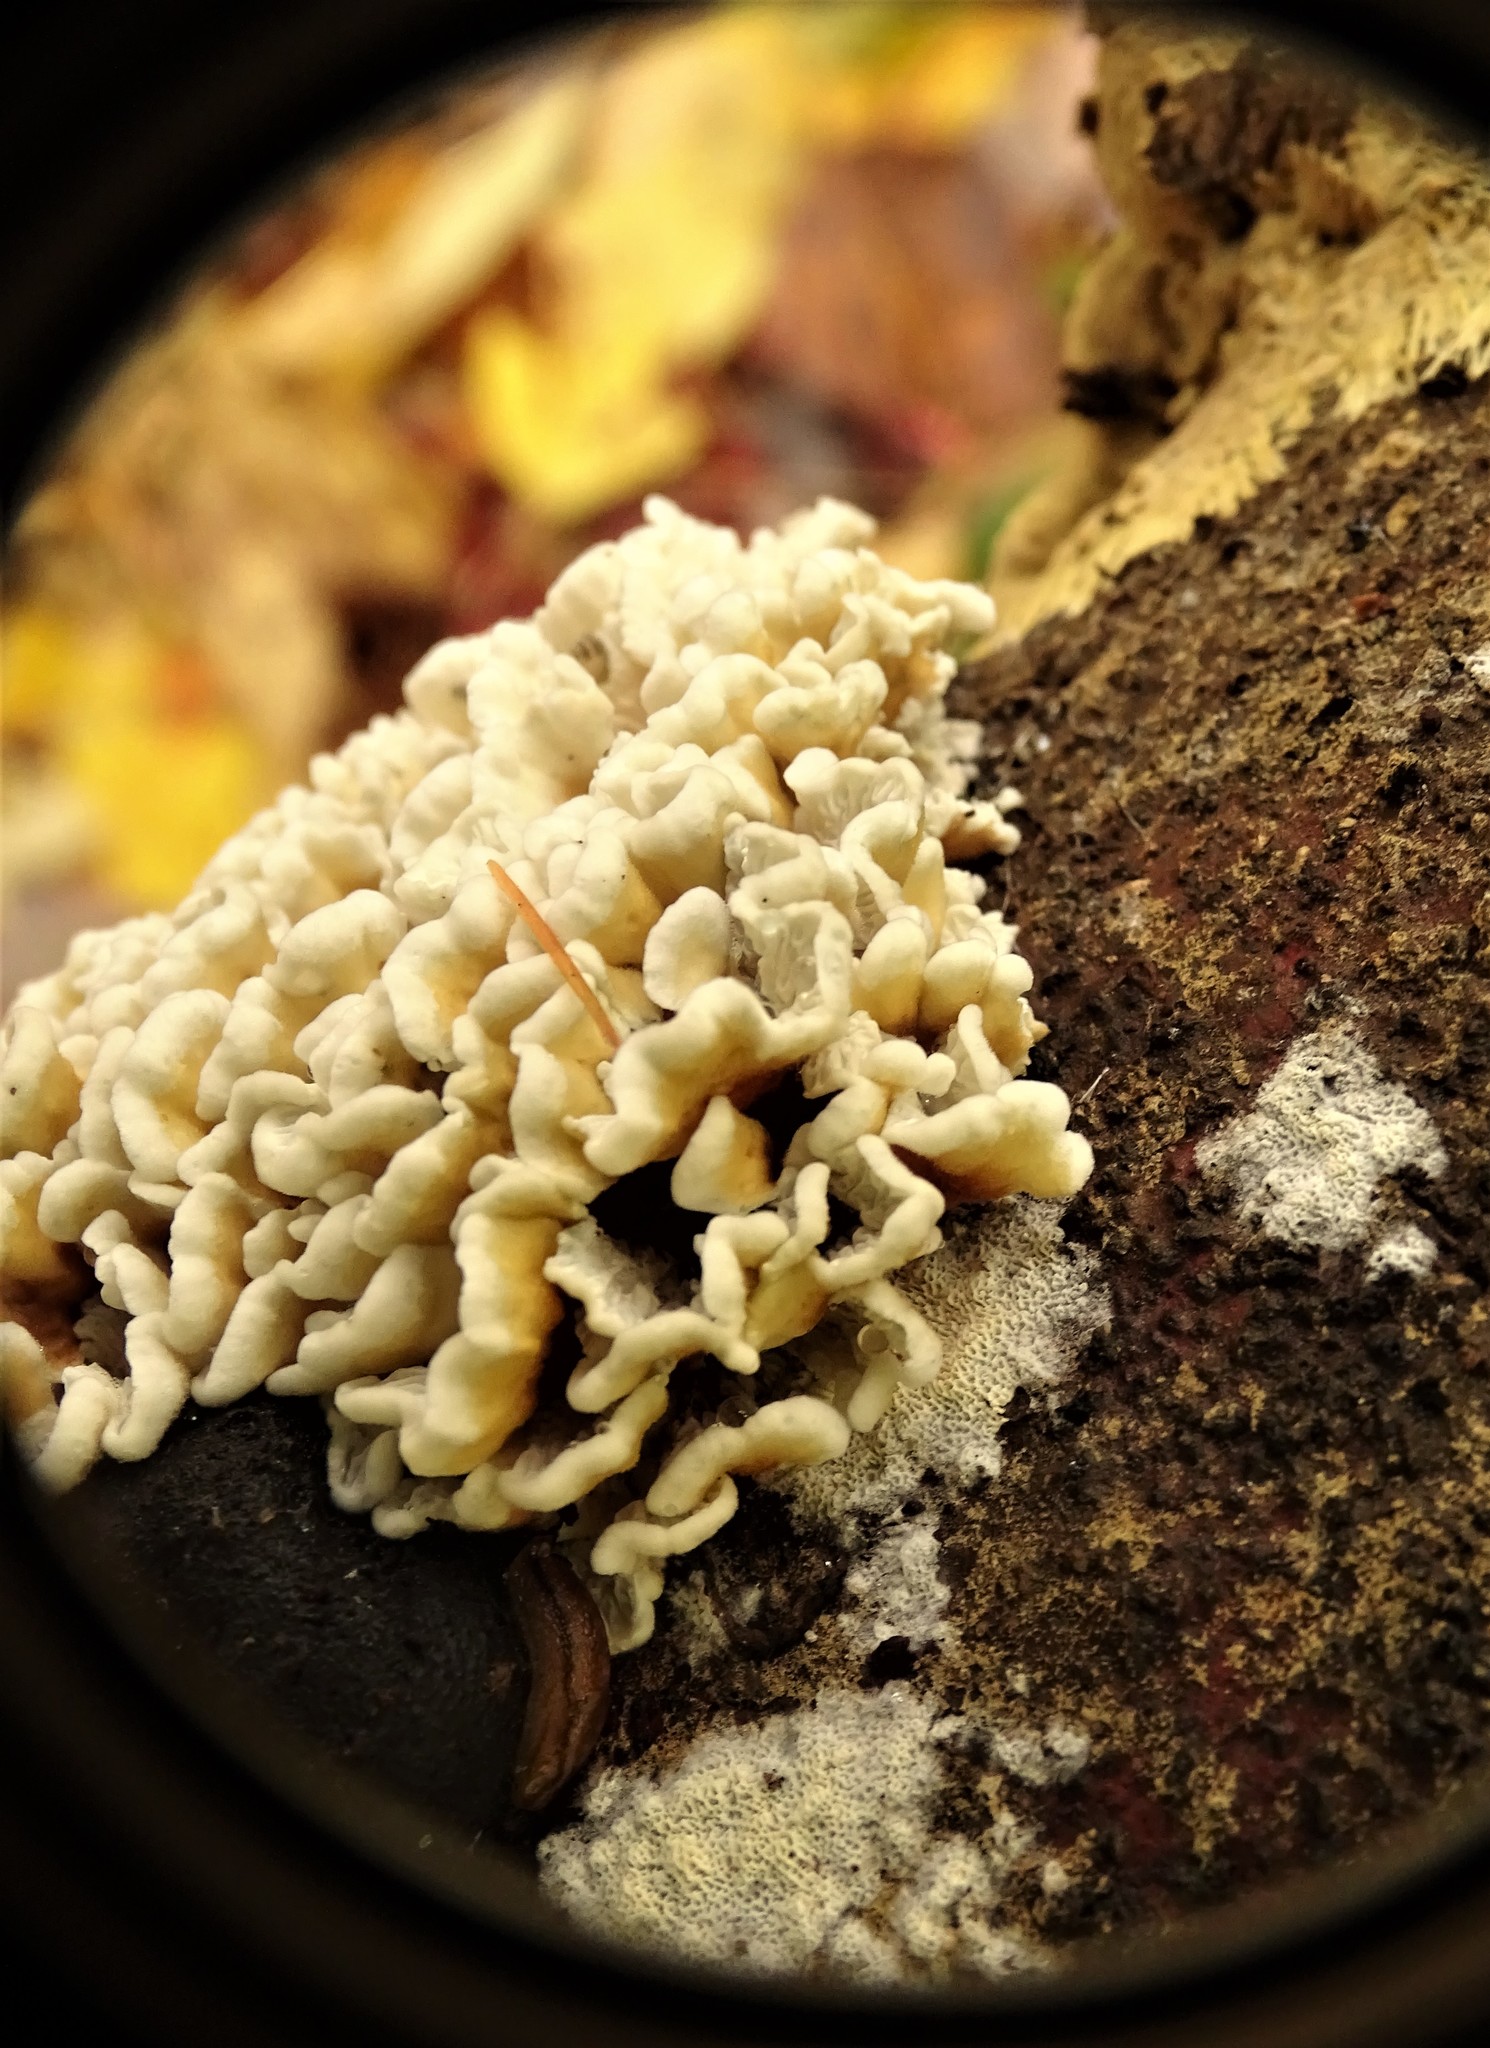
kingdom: Fungi
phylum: Basidiomycota
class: Agaricomycetes
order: Amylocorticiales
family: Amylocorticiaceae
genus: Plicaturopsis
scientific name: Plicaturopsis crispa
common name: Crimped gill
